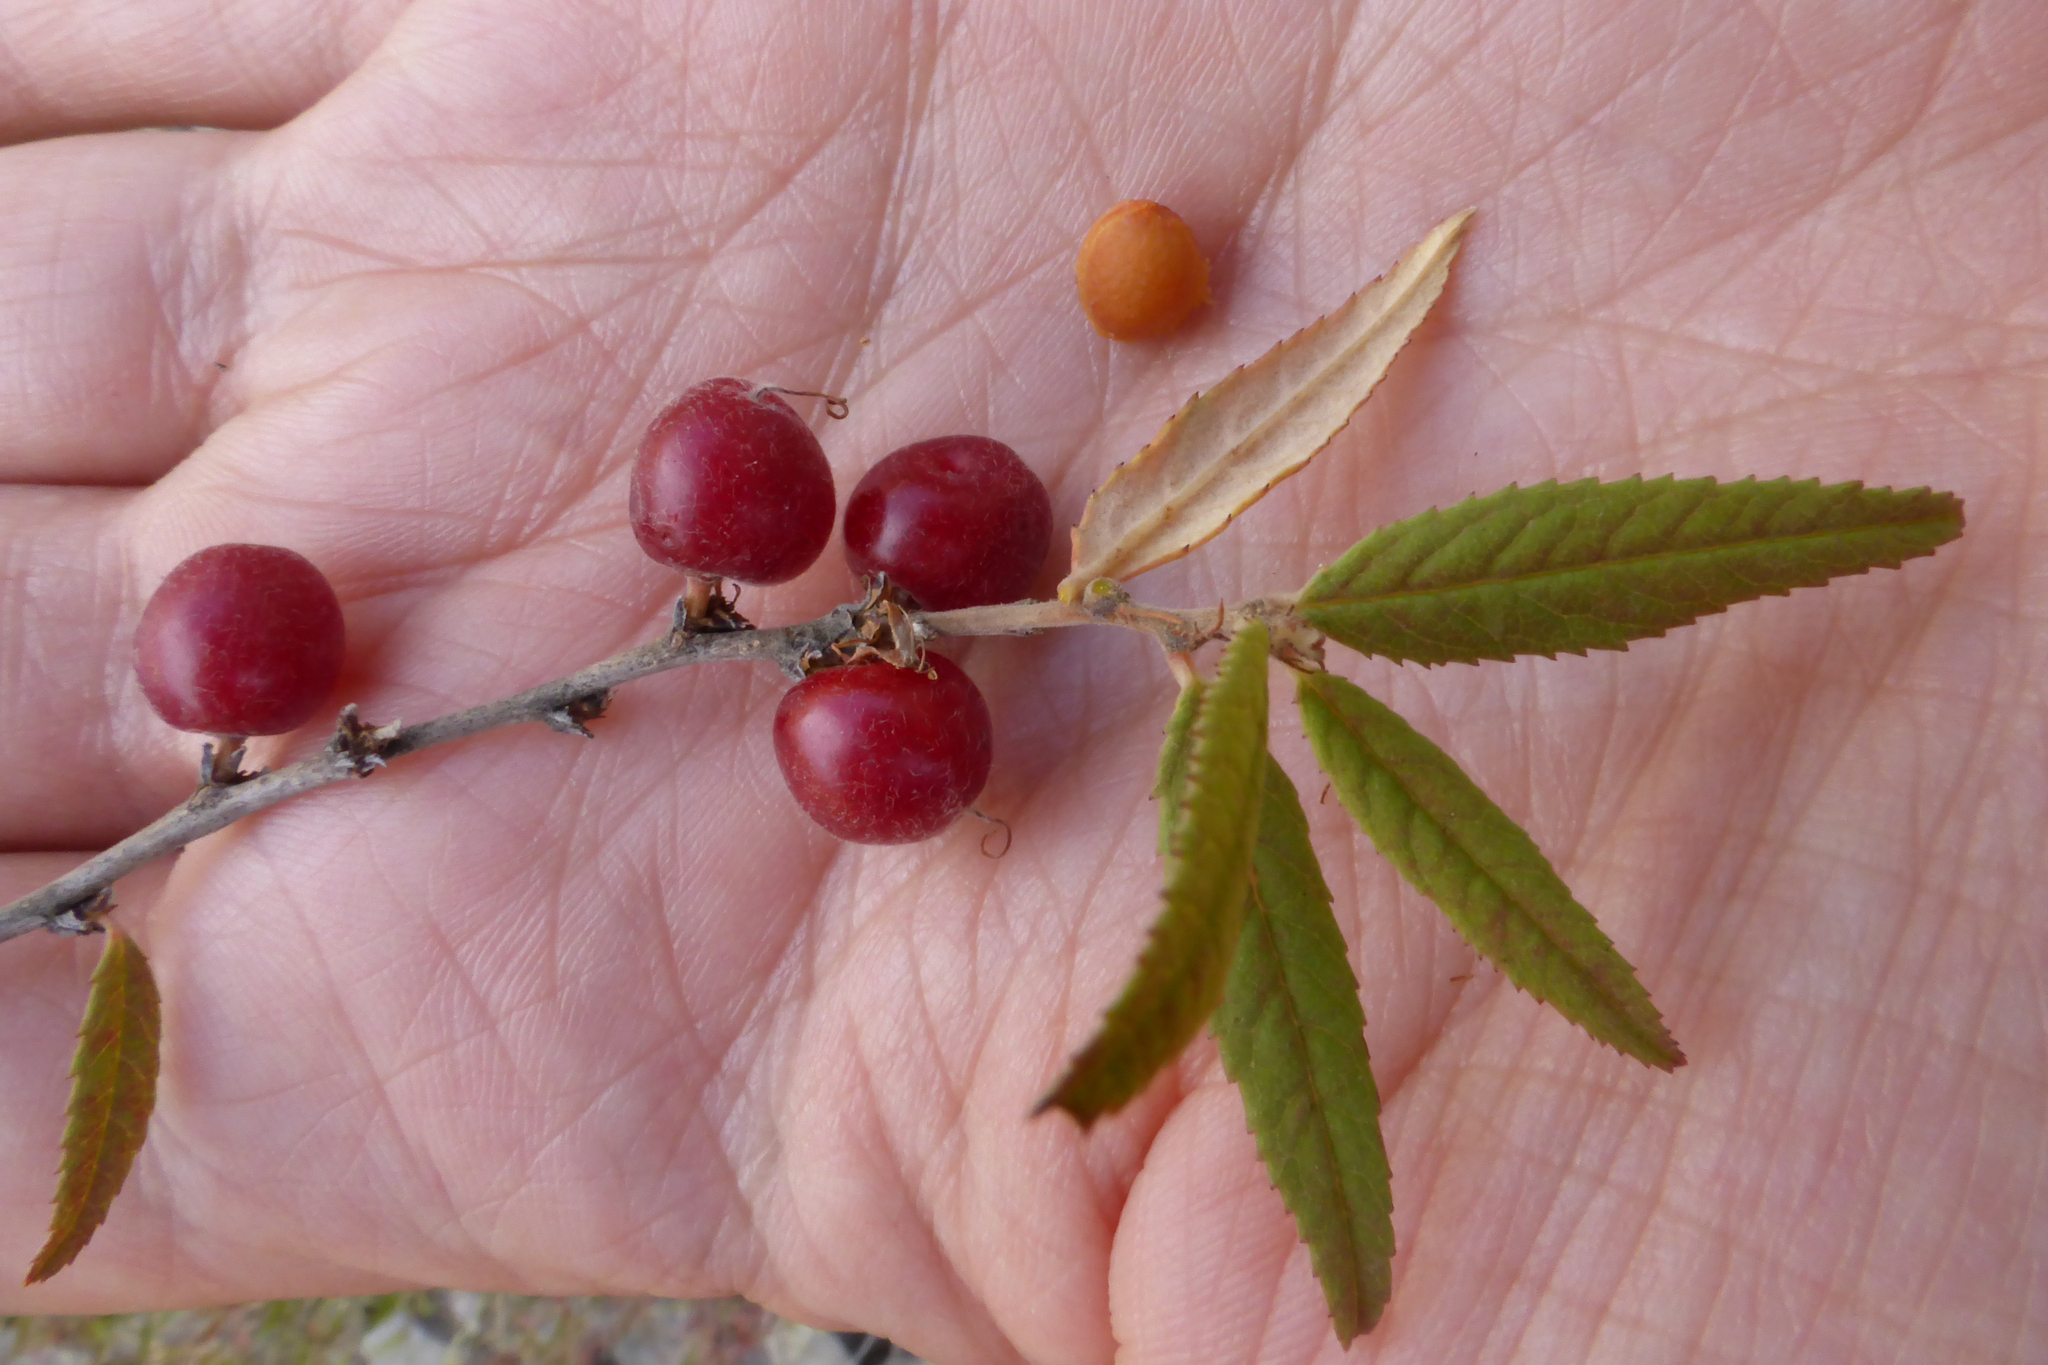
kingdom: Plantae
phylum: Tracheophyta
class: Magnoliopsida
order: Rosales
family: Rosaceae
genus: Prunus
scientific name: Prunus incana
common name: Willow cherry
